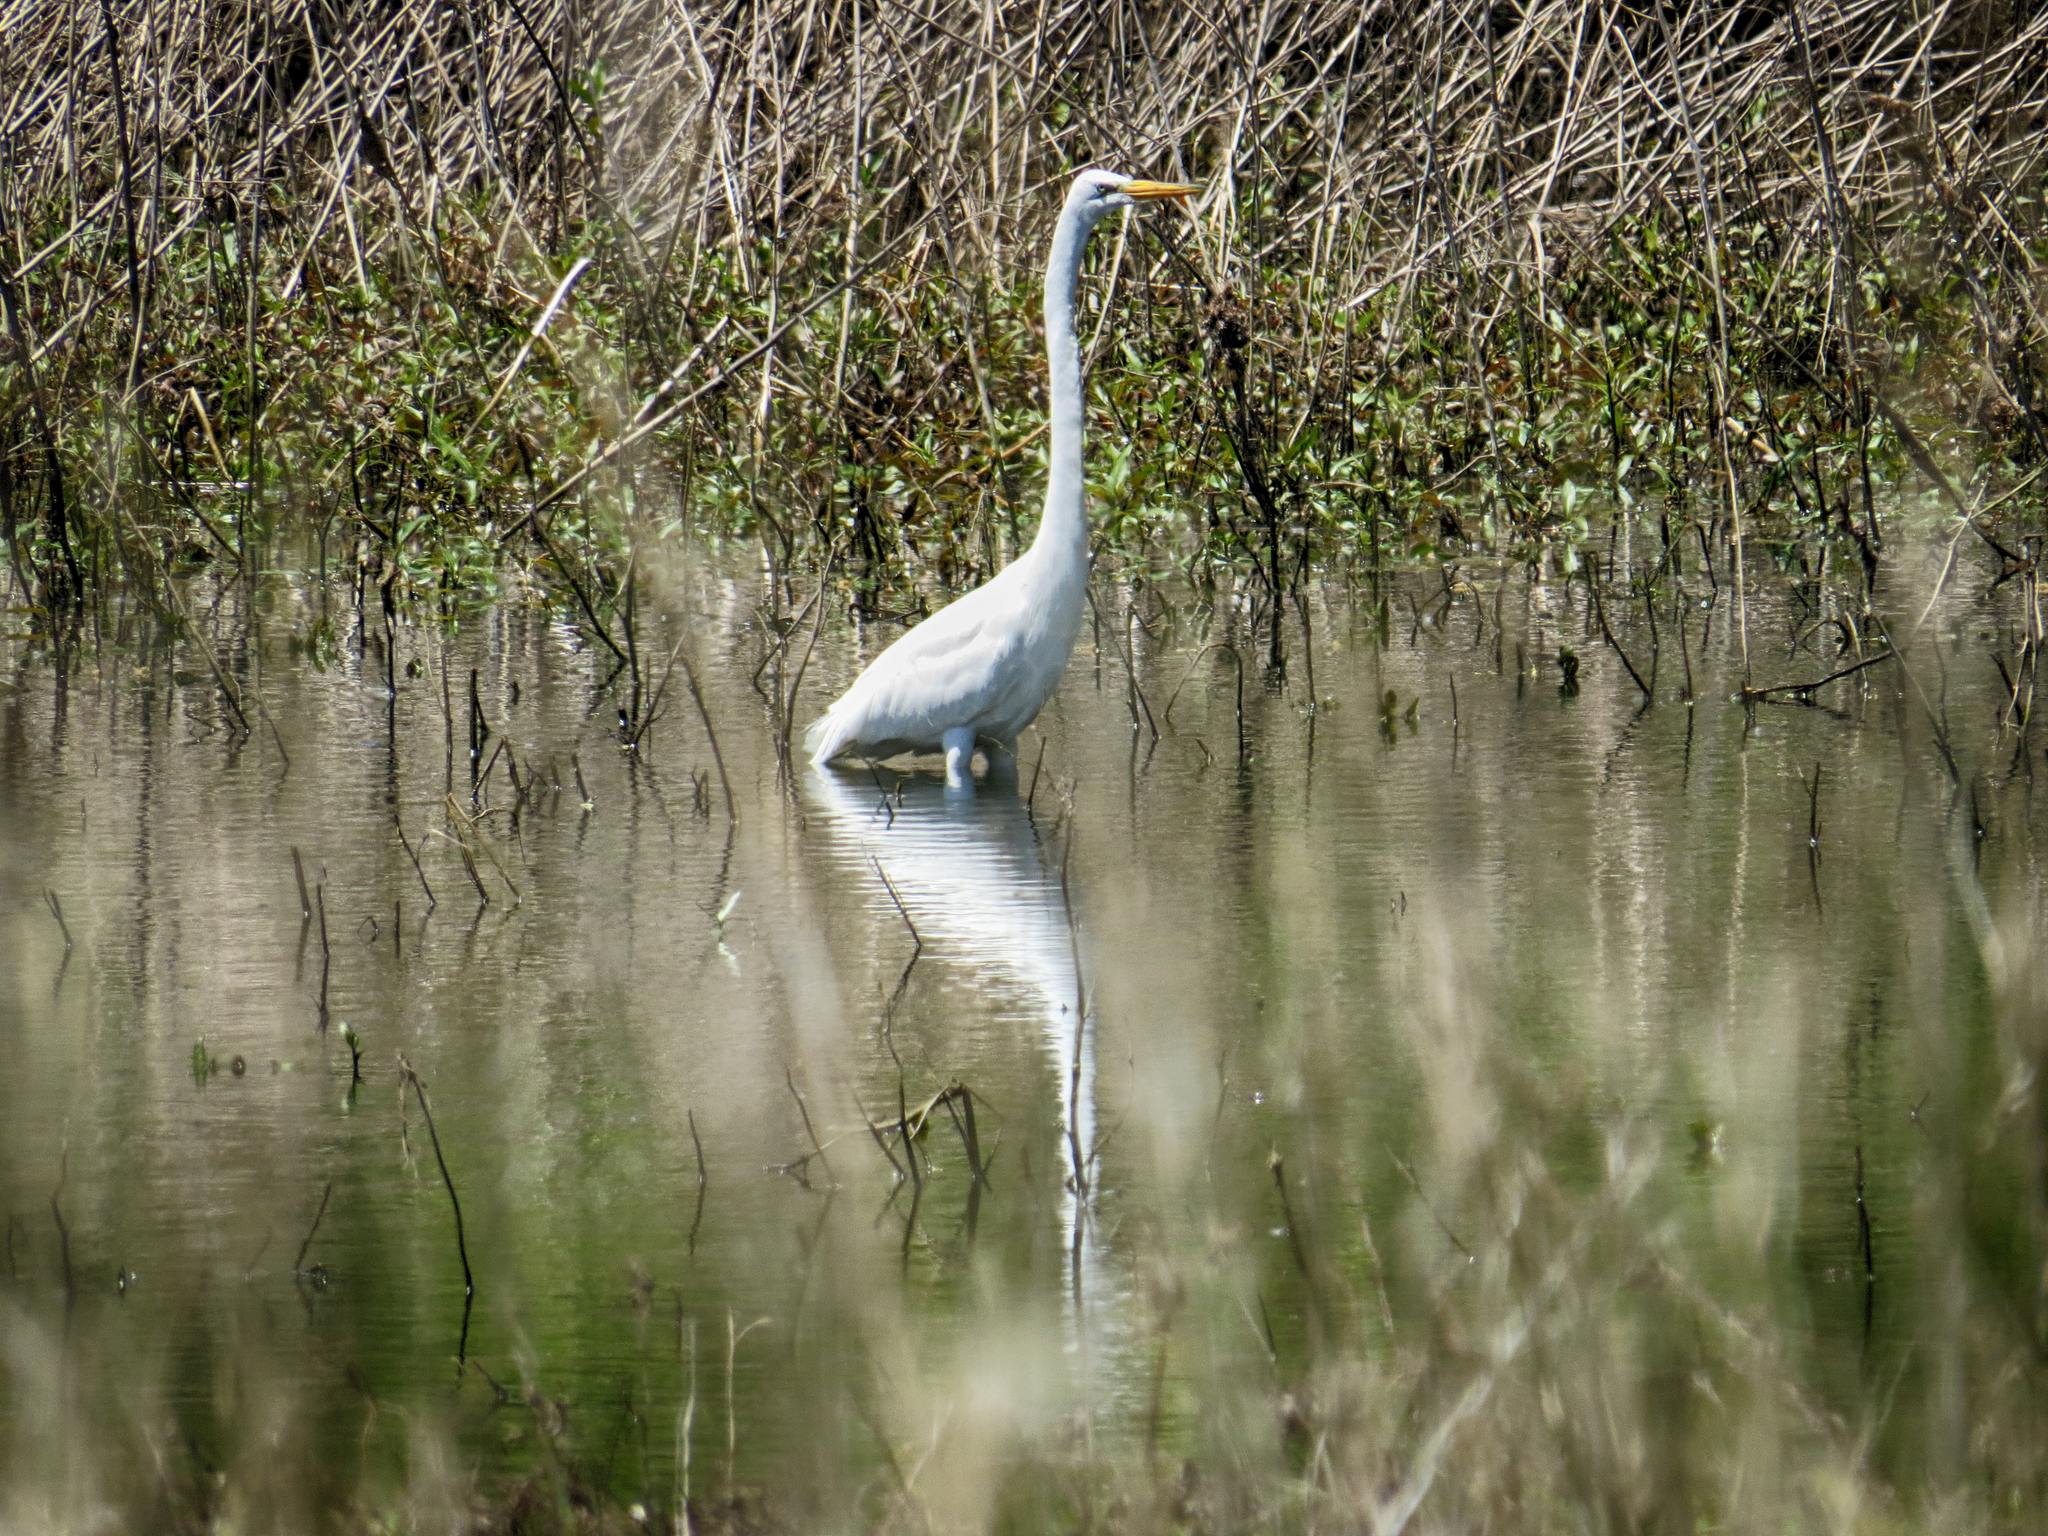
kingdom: Animalia
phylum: Chordata
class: Aves
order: Pelecaniformes
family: Ardeidae
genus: Ardea
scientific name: Ardea alba
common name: Great egret
